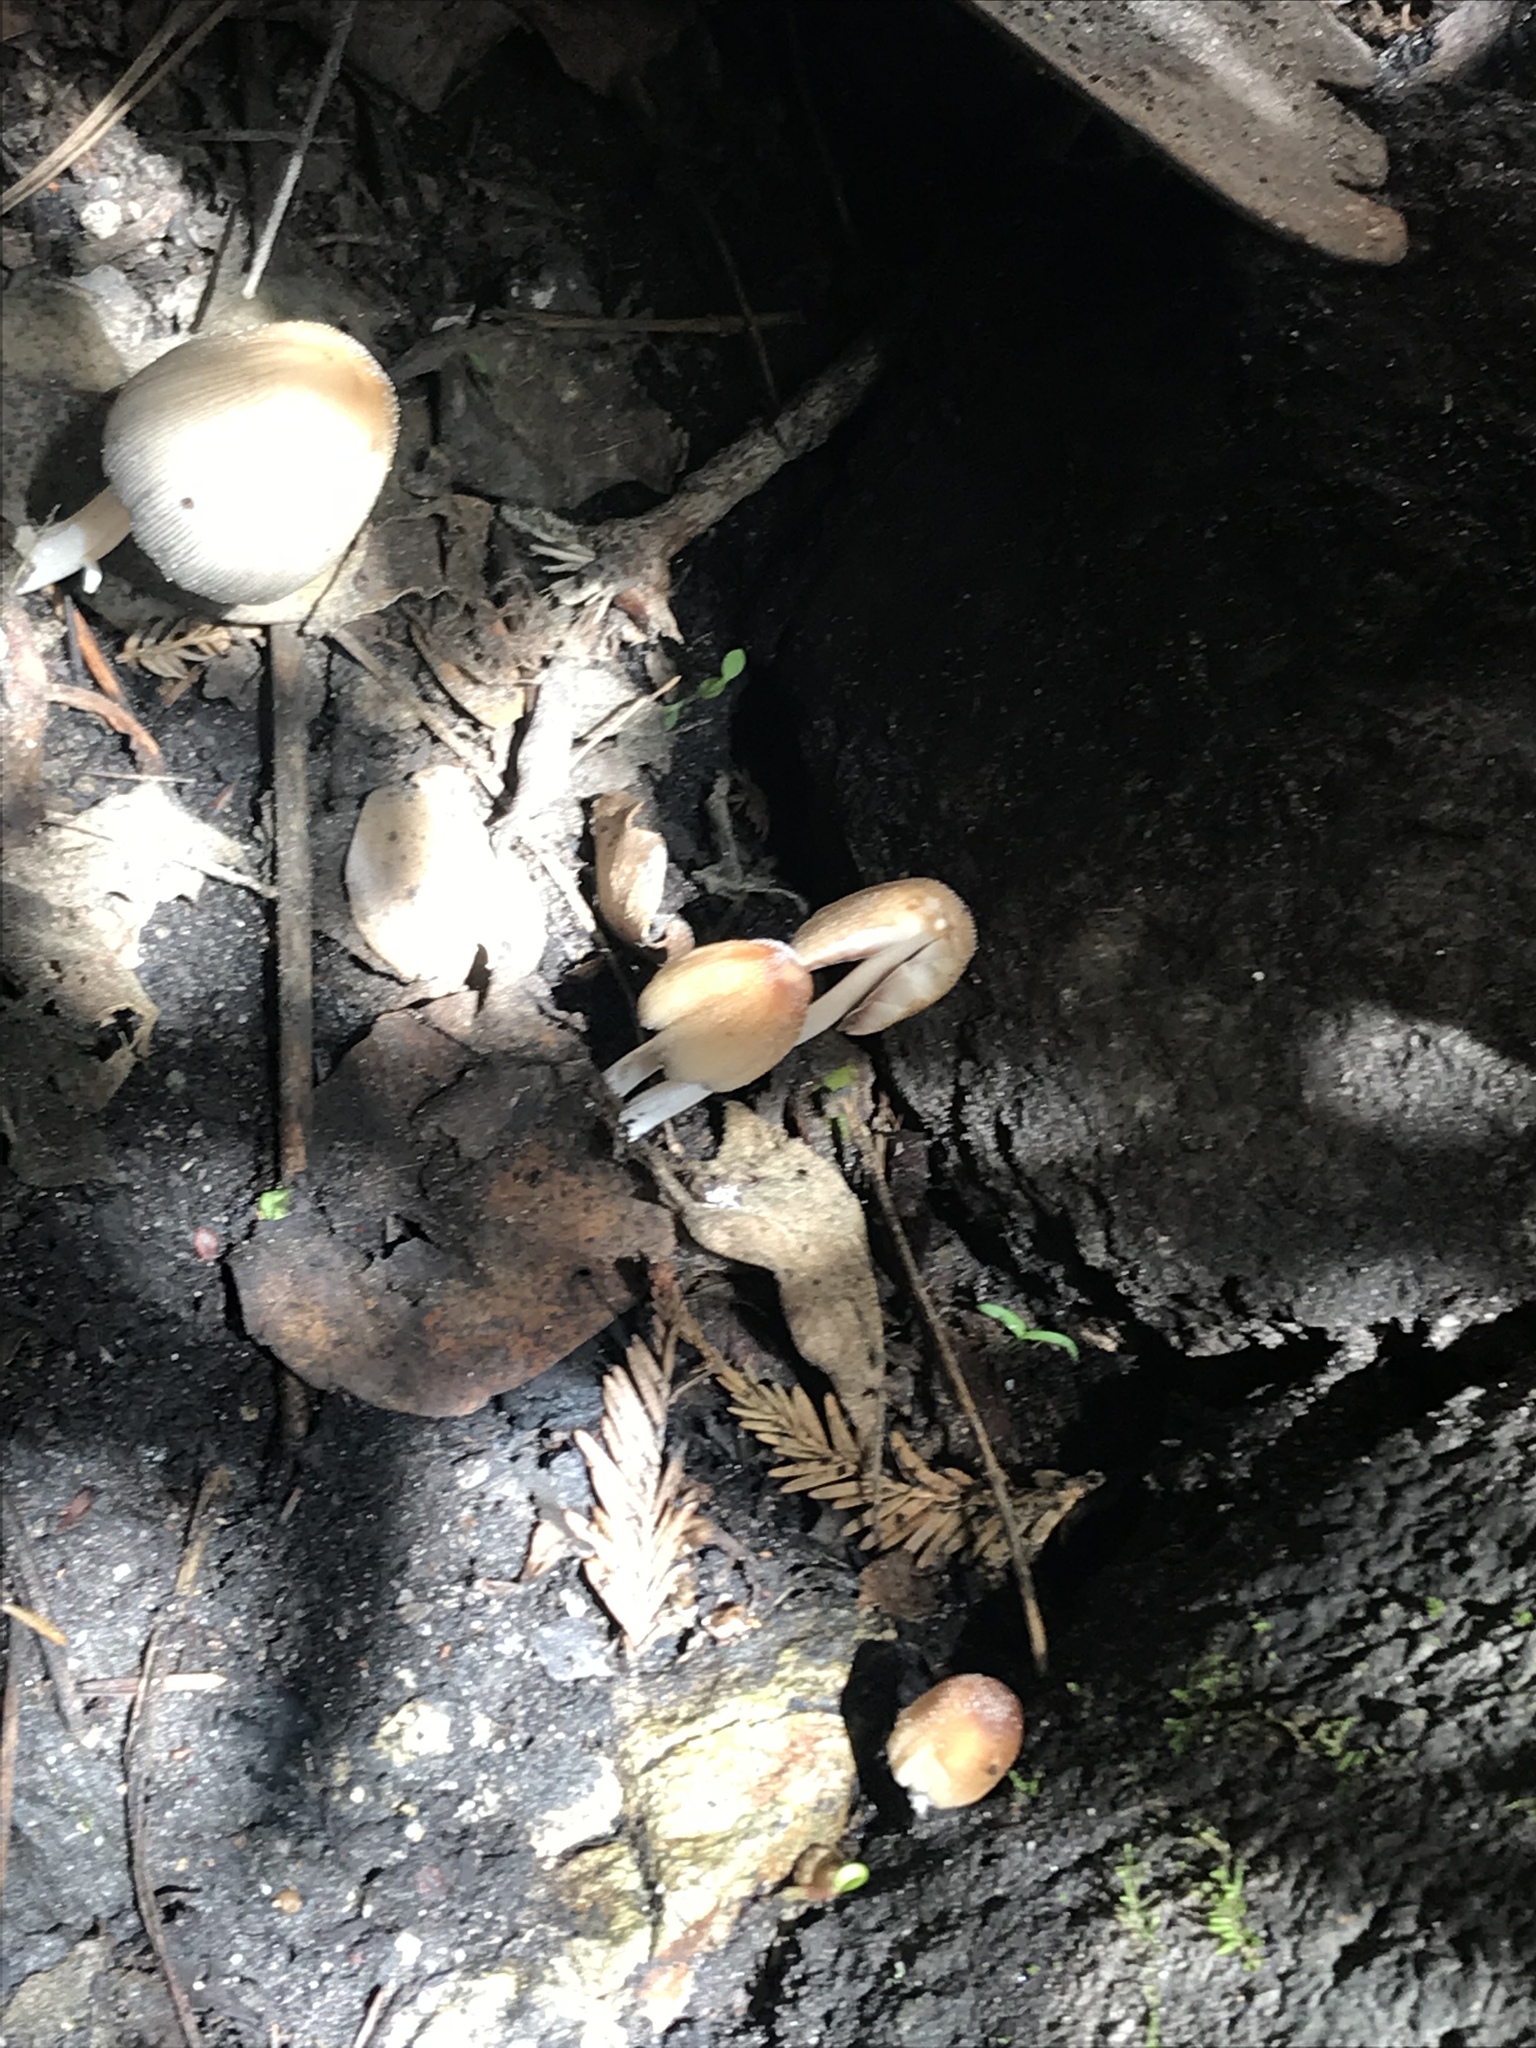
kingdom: Fungi
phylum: Basidiomycota
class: Agaricomycetes
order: Agaricales
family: Psathyrellaceae
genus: Coprinellus
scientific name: Coprinellus domesticus
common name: Firerug inkcap
